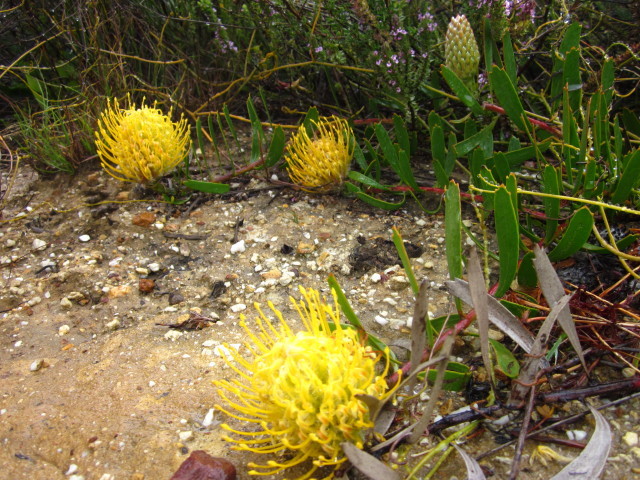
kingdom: Plantae
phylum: Tracheophyta
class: Magnoliopsida
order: Proteales
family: Proteaceae
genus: Leucospermum
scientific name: Leucospermum cuneiforme
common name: Common pincushion
